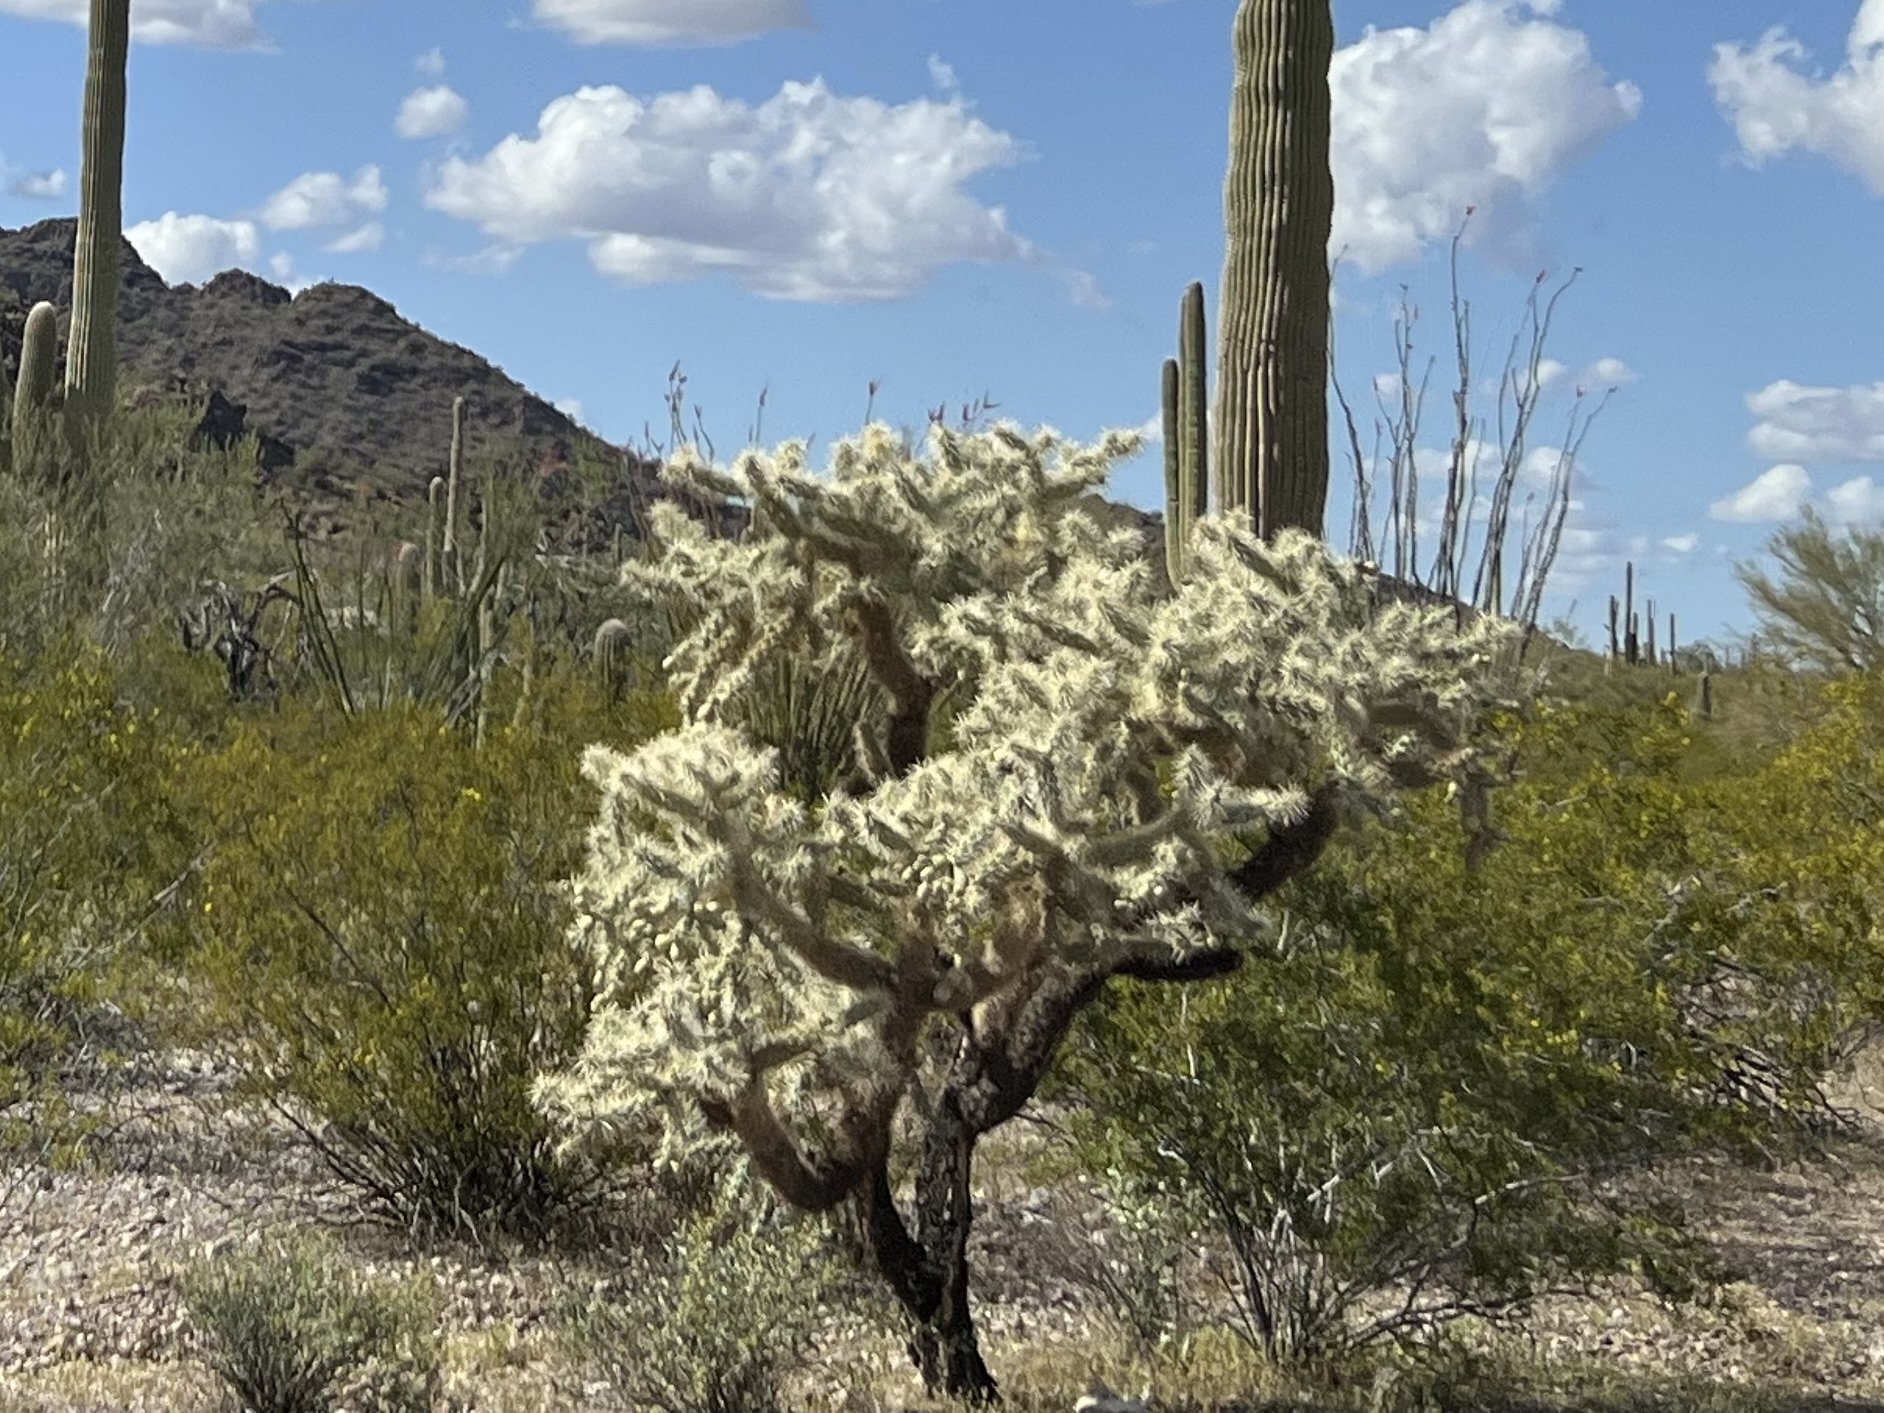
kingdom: Plantae
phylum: Tracheophyta
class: Magnoliopsida
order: Caryophyllales
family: Cactaceae
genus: Cylindropuntia
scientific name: Cylindropuntia fulgida
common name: Jumping cholla
